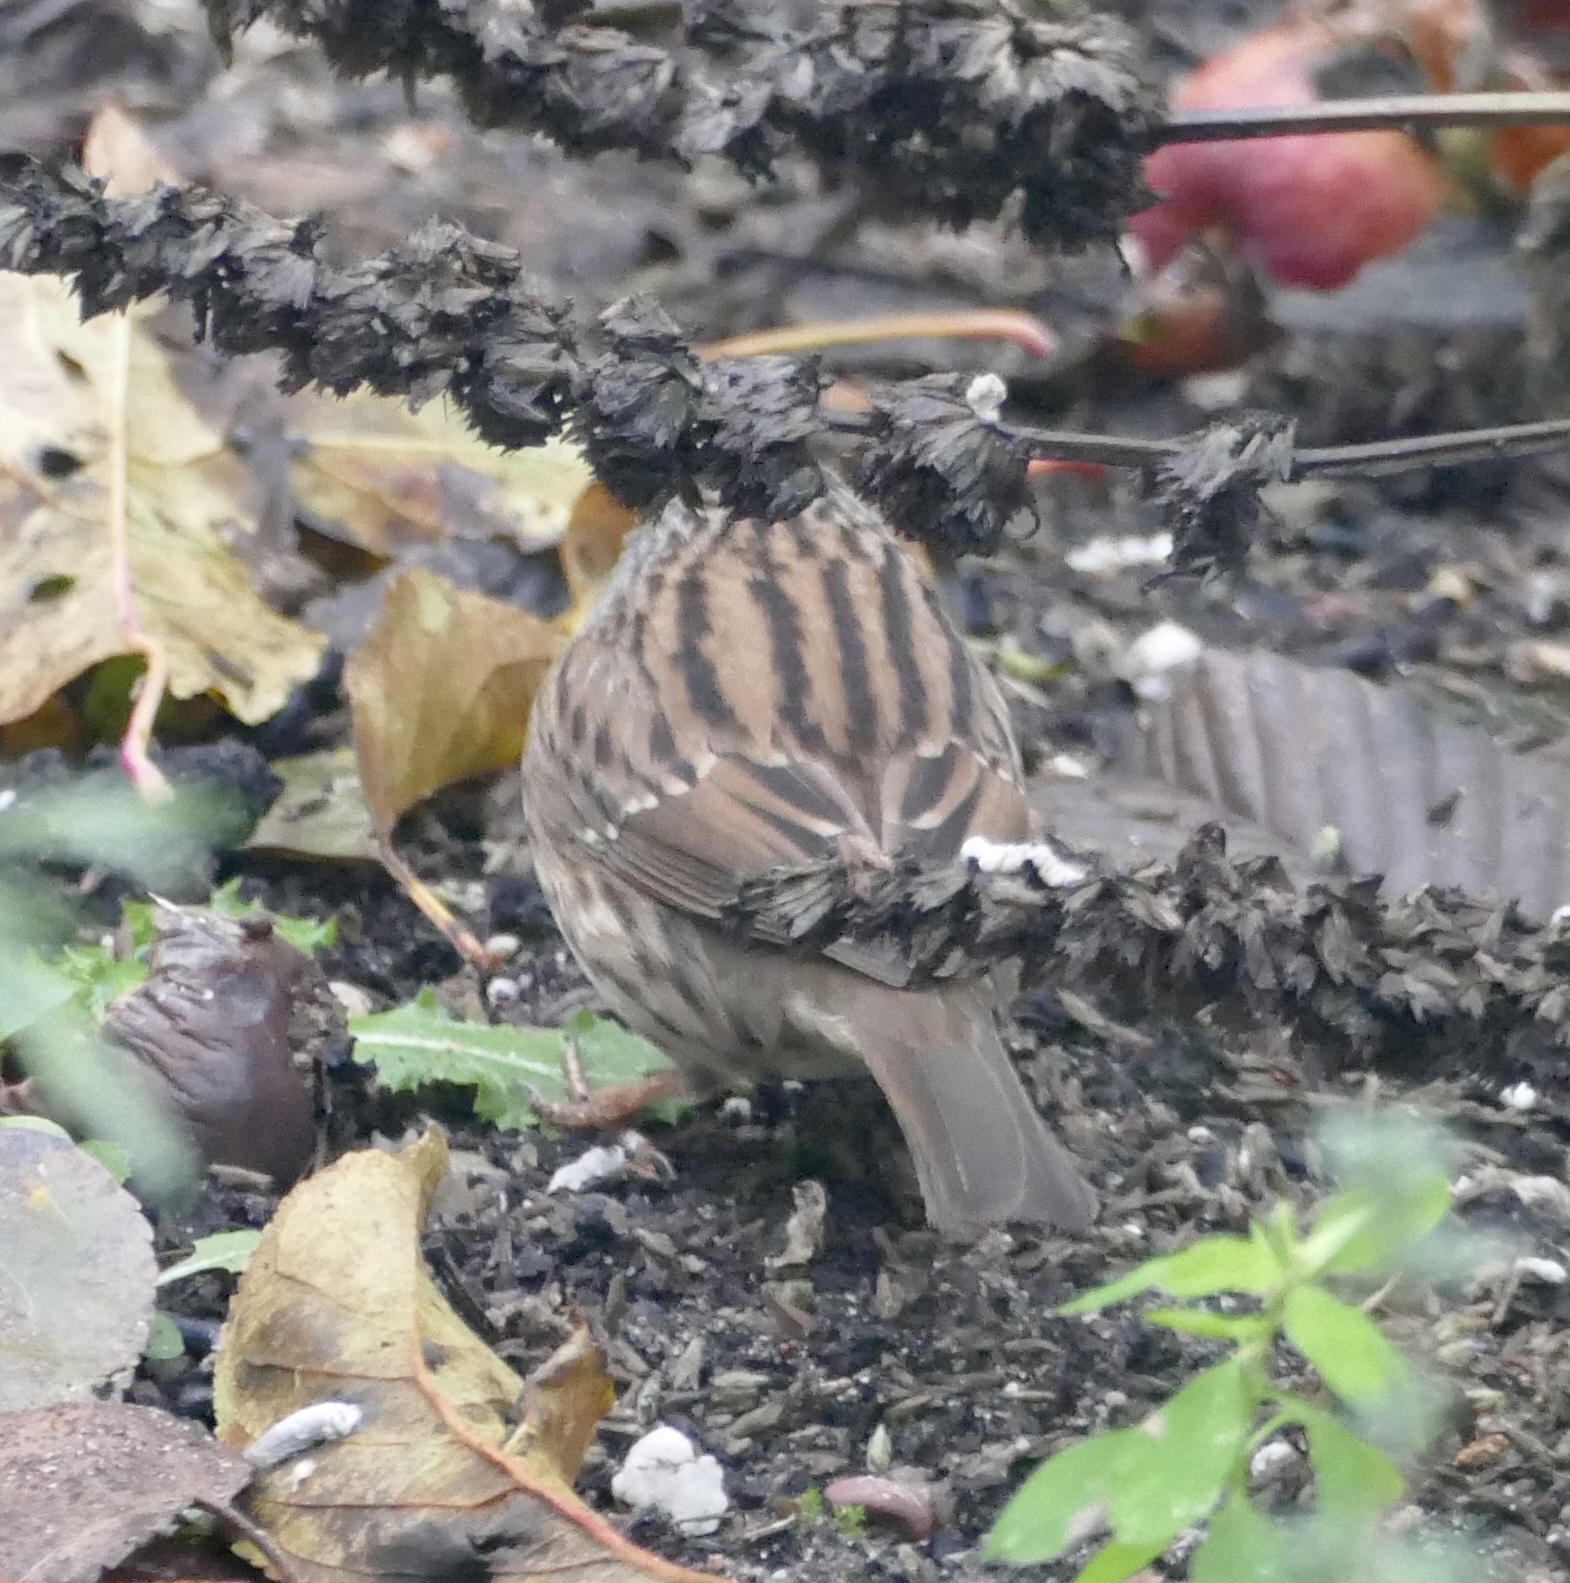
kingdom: Animalia
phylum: Chordata
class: Aves
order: Passeriformes
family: Prunellidae
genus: Prunella
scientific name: Prunella modularis
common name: Dunnock
